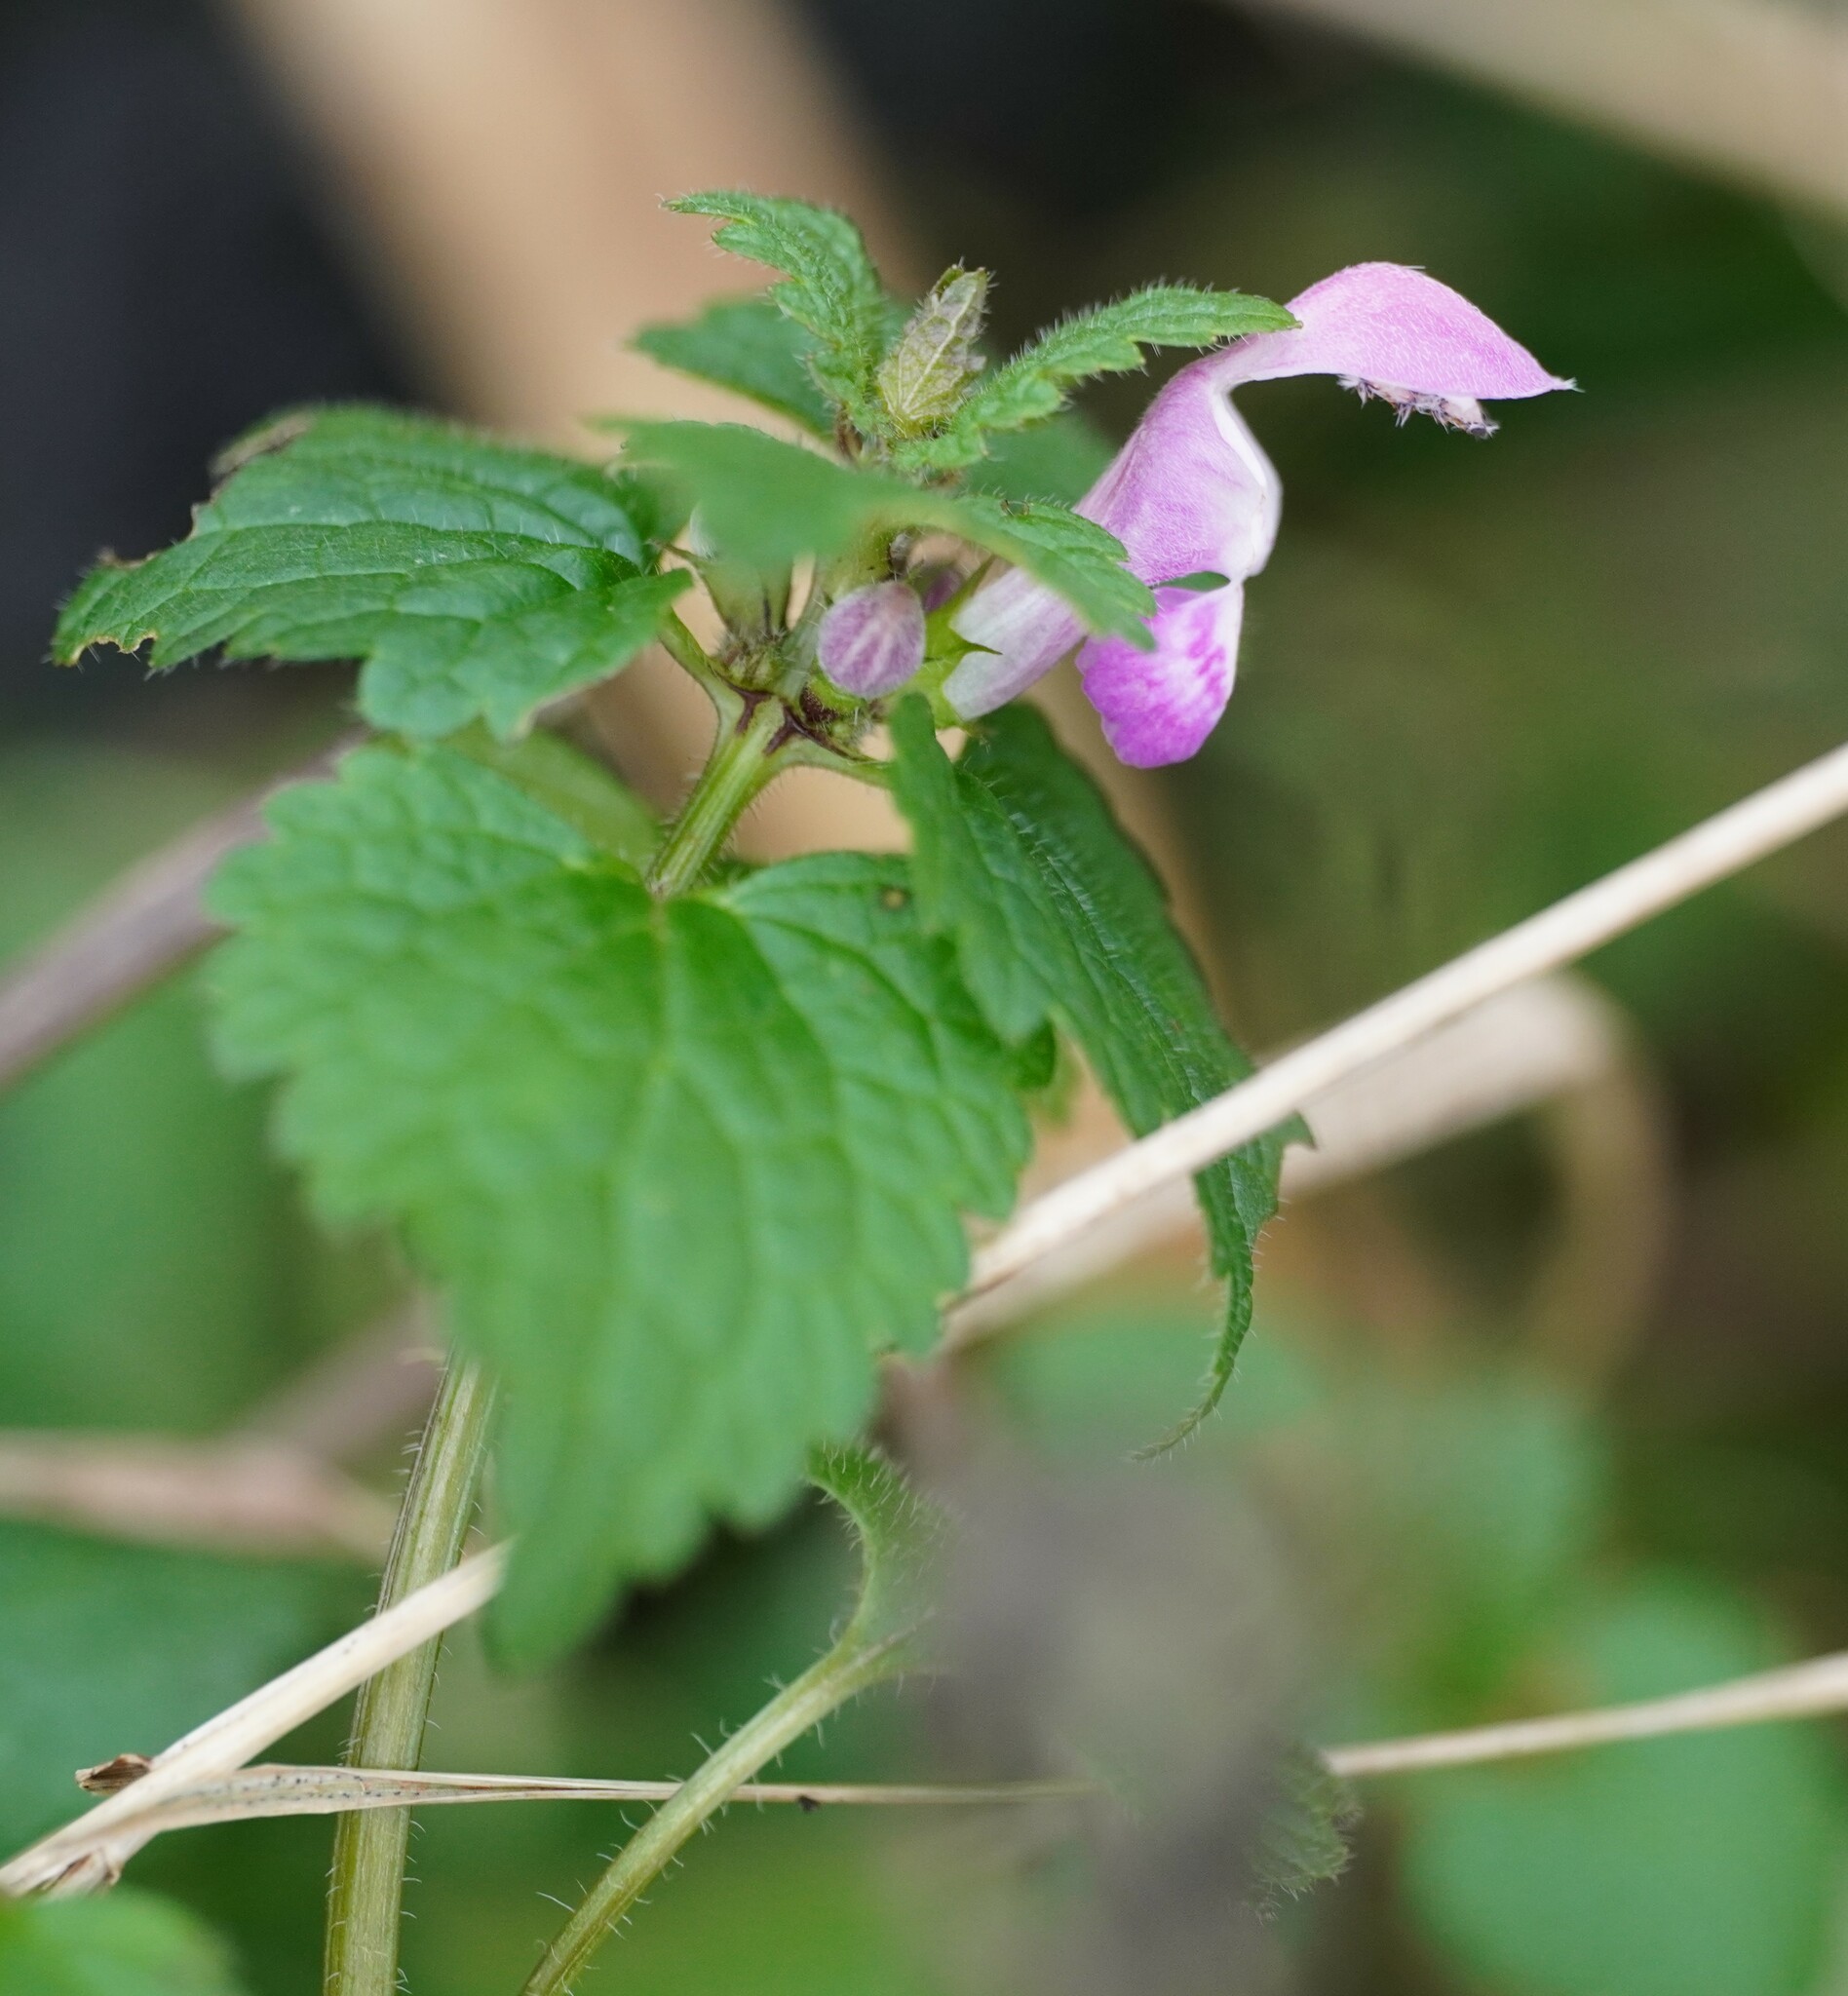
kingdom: Plantae
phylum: Tracheophyta
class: Magnoliopsida
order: Lamiales
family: Lamiaceae
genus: Lamium
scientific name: Lamium maculatum
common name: Spotted dead-nettle
